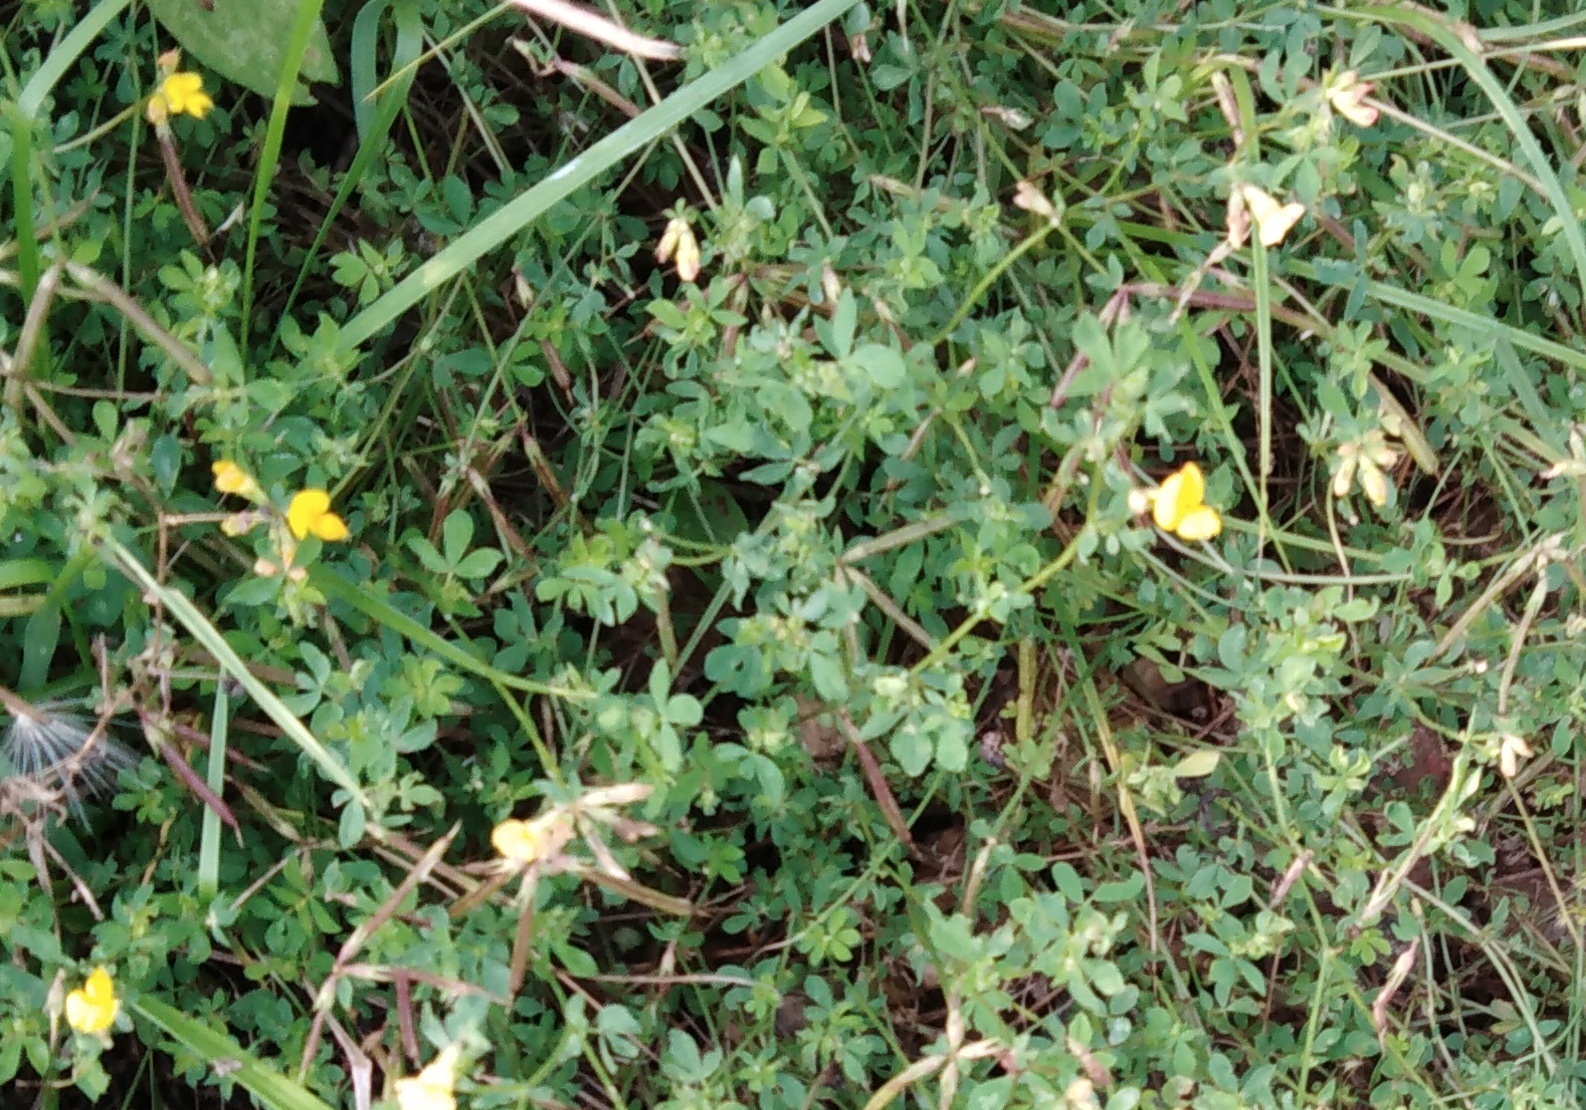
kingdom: Plantae
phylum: Tracheophyta
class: Magnoliopsida
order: Fabales
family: Fabaceae
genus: Lotus
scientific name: Lotus corniculatus
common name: Common bird's-foot-trefoil
